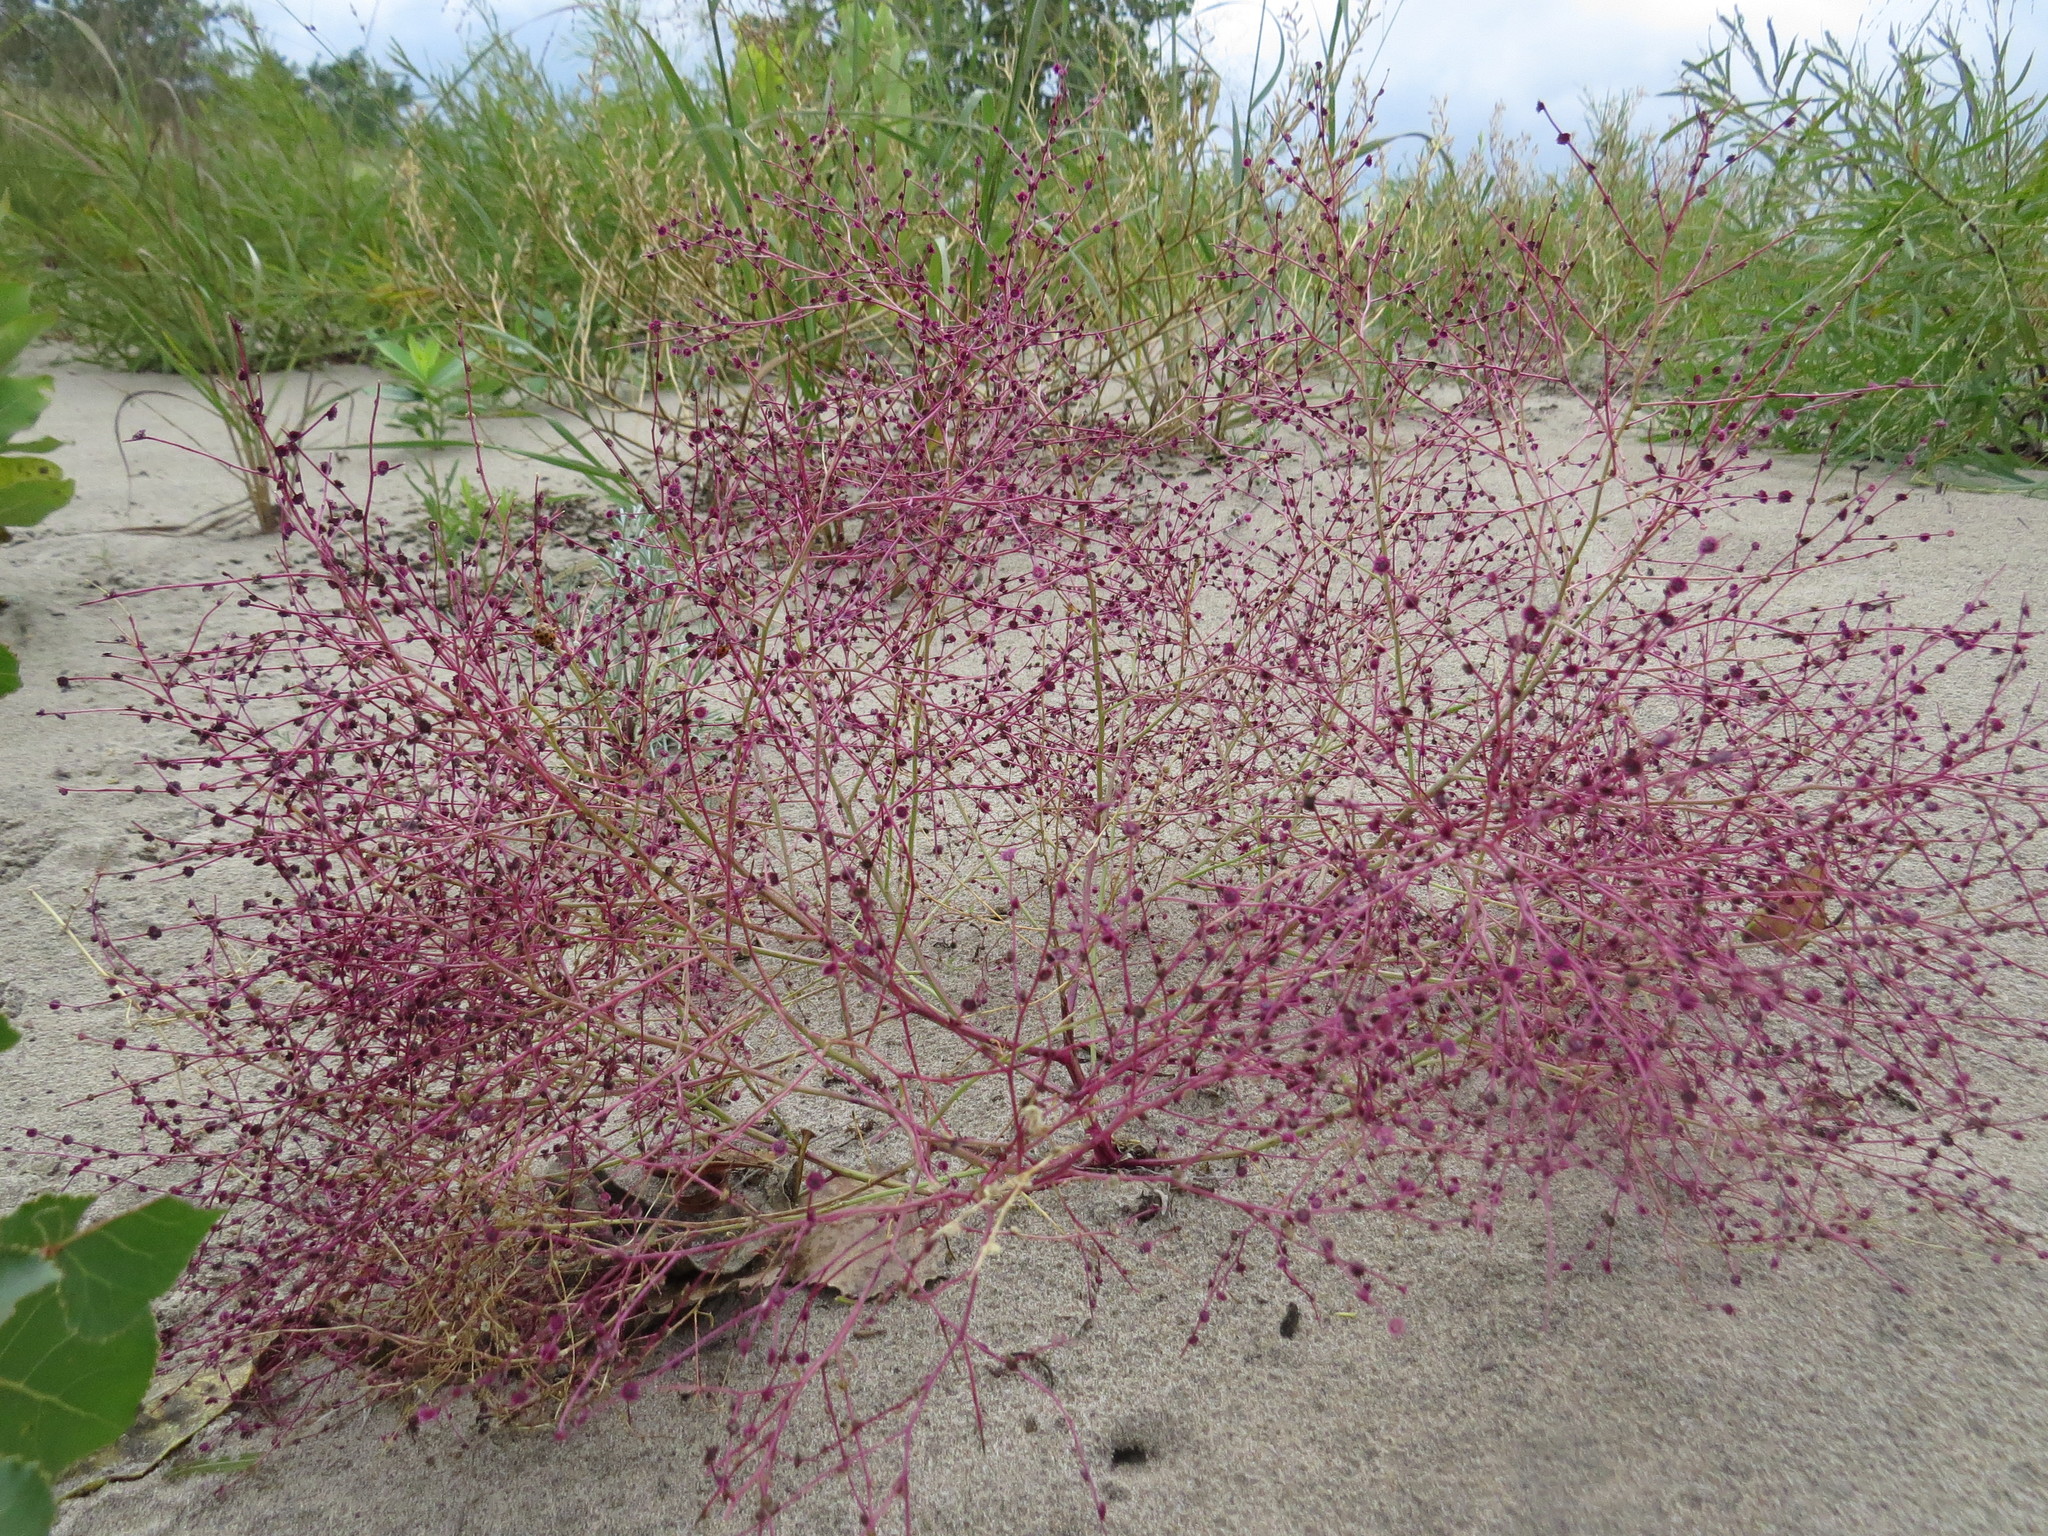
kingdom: Plantae
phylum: Tracheophyta
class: Magnoliopsida
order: Caryophyllales
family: Amaranthaceae
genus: Dysphania
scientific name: Dysphania atriplicifolia
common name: Plains tumbleweed
